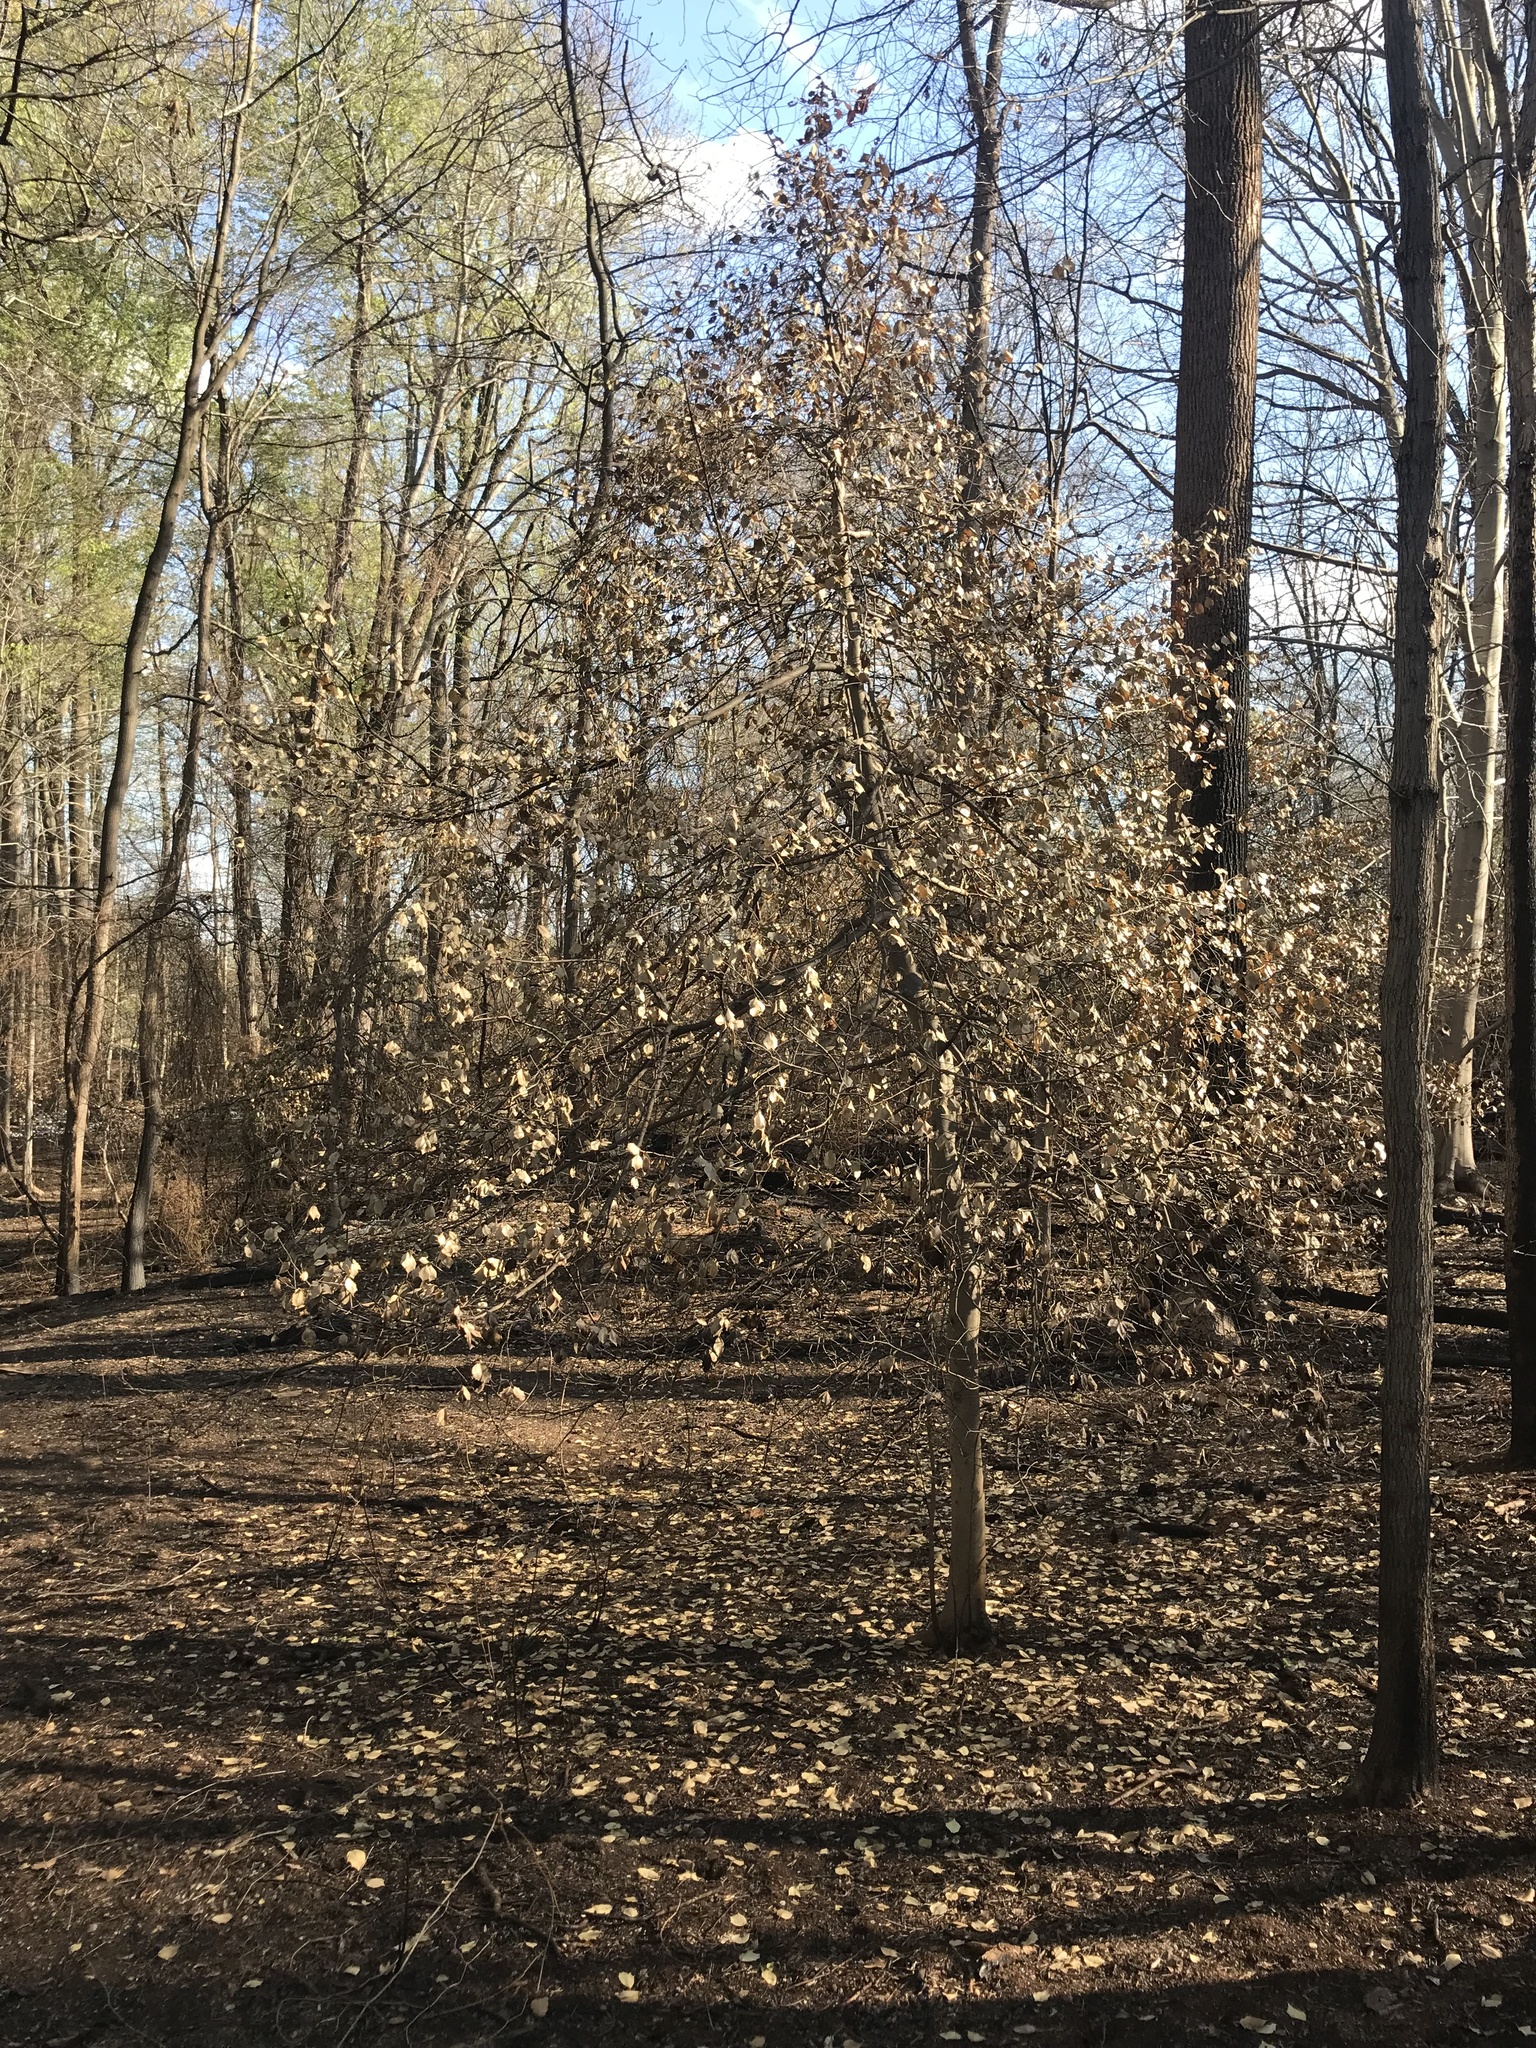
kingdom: Plantae
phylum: Tracheophyta
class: Magnoliopsida
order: Aquifoliales
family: Aquifoliaceae
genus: Ilex
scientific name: Ilex opaca
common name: American holly
